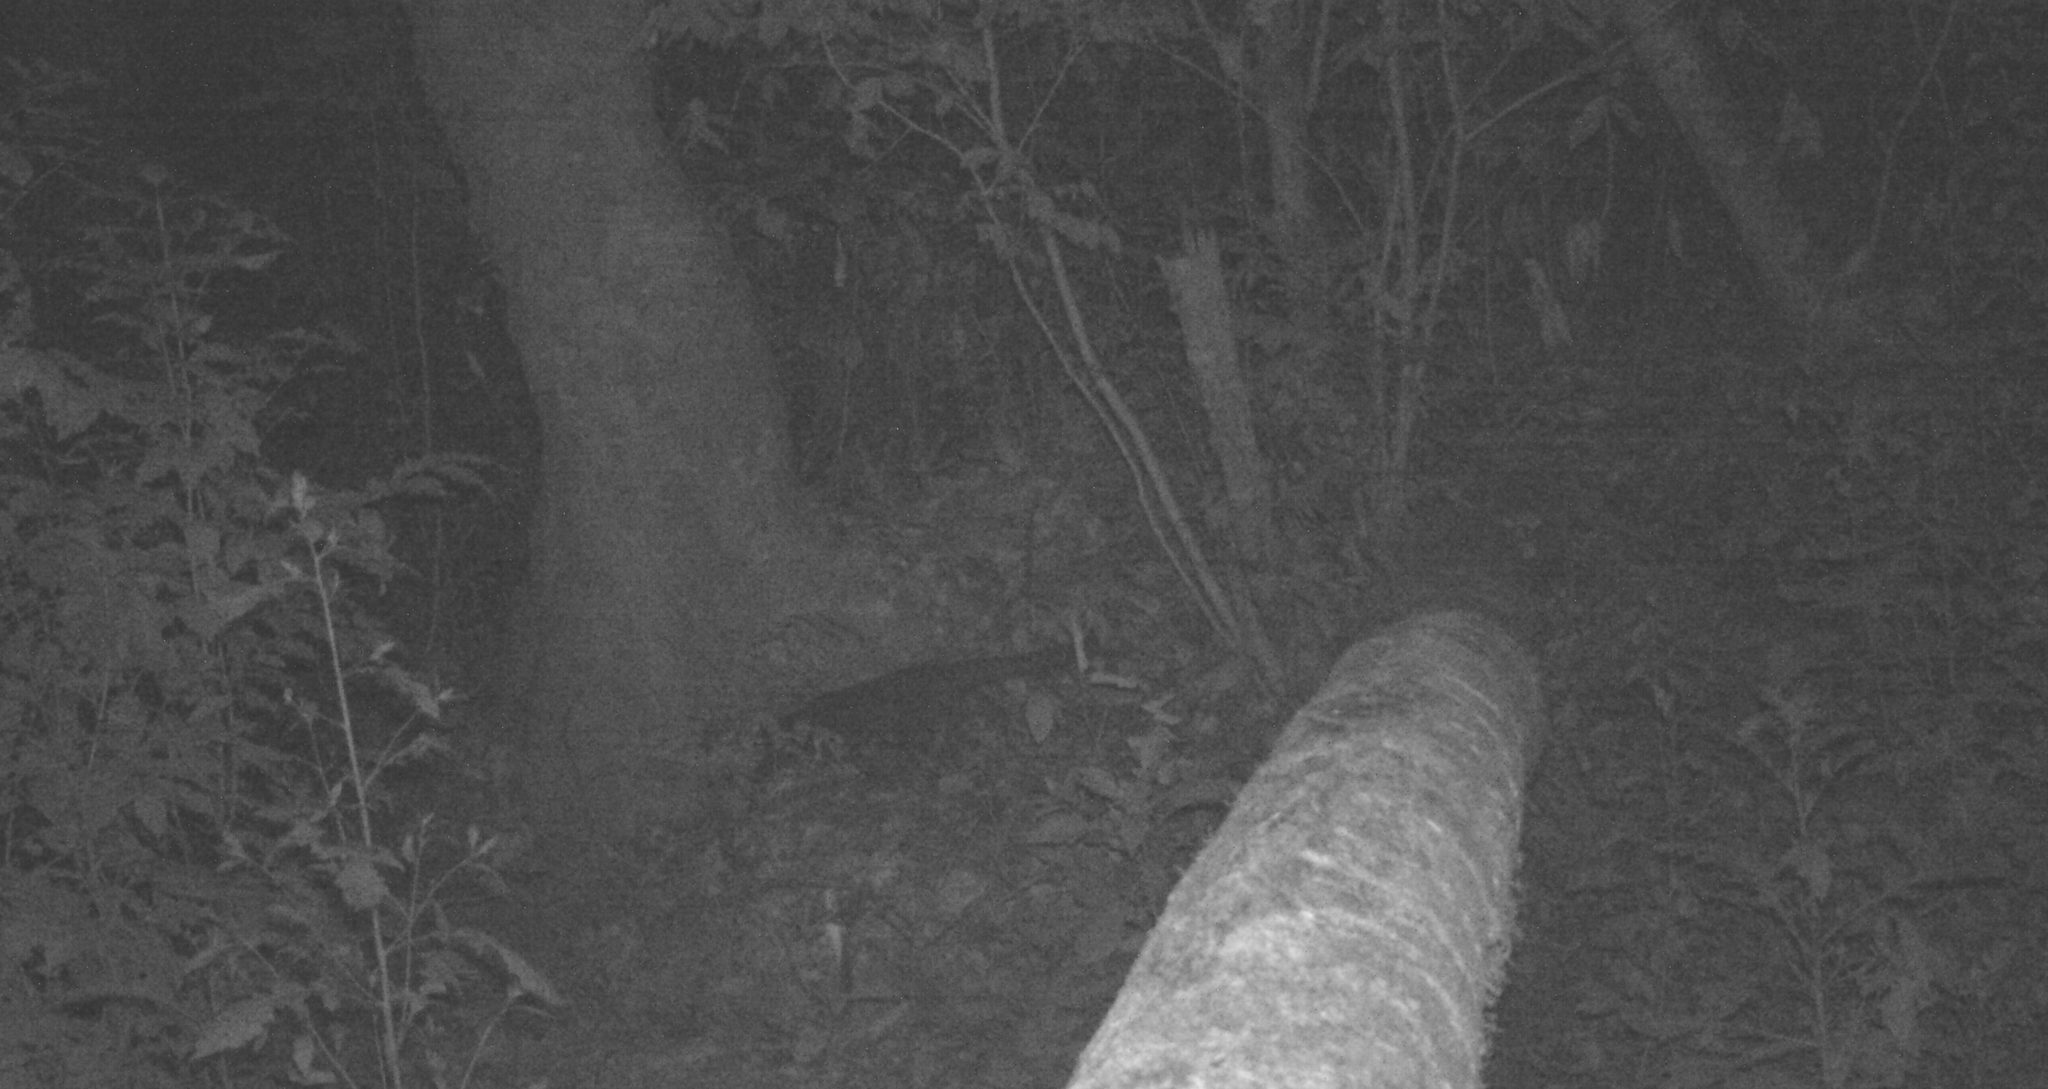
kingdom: Animalia
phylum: Chordata
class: Mammalia
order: Carnivora
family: Viverridae
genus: Paradoxurus
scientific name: Paradoxurus jerdoni
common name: Jerdon's palm civet
